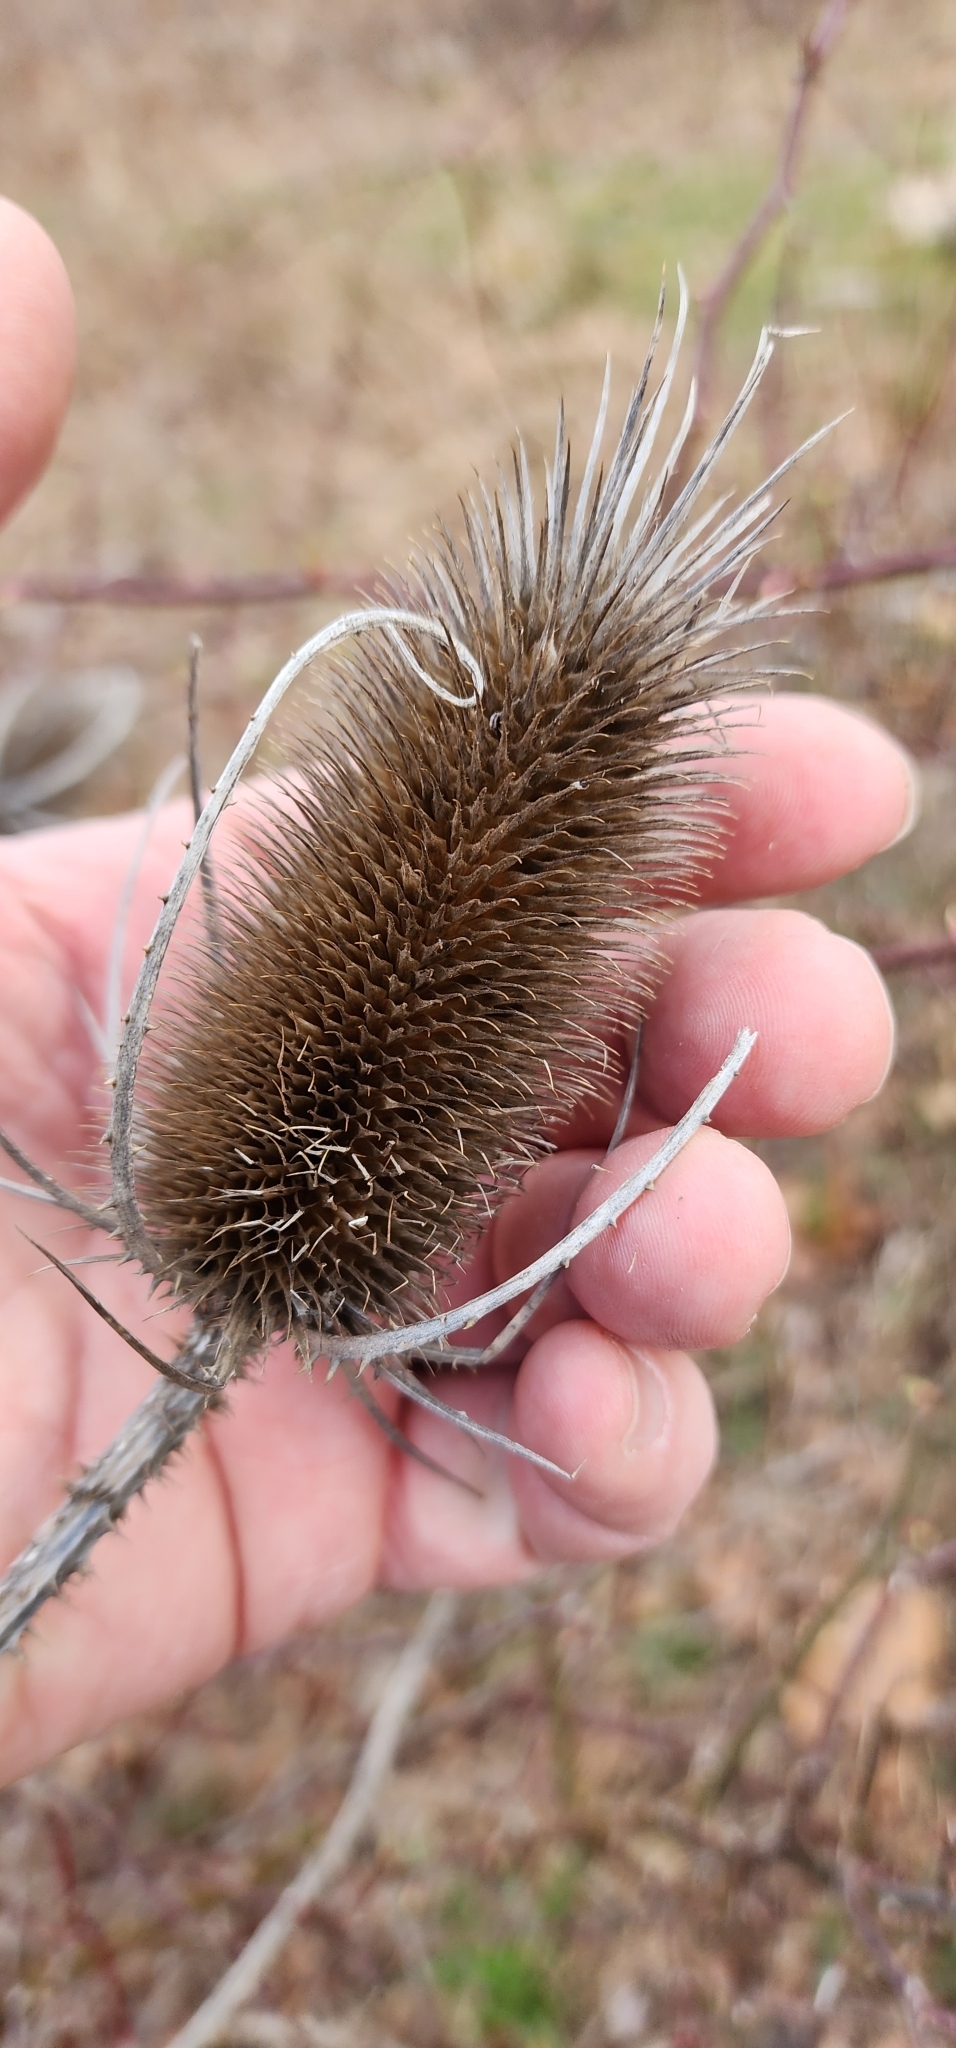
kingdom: Plantae
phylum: Tracheophyta
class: Magnoliopsida
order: Dipsacales
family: Caprifoliaceae
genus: Dipsacus
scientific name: Dipsacus fullonum
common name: Teasel
